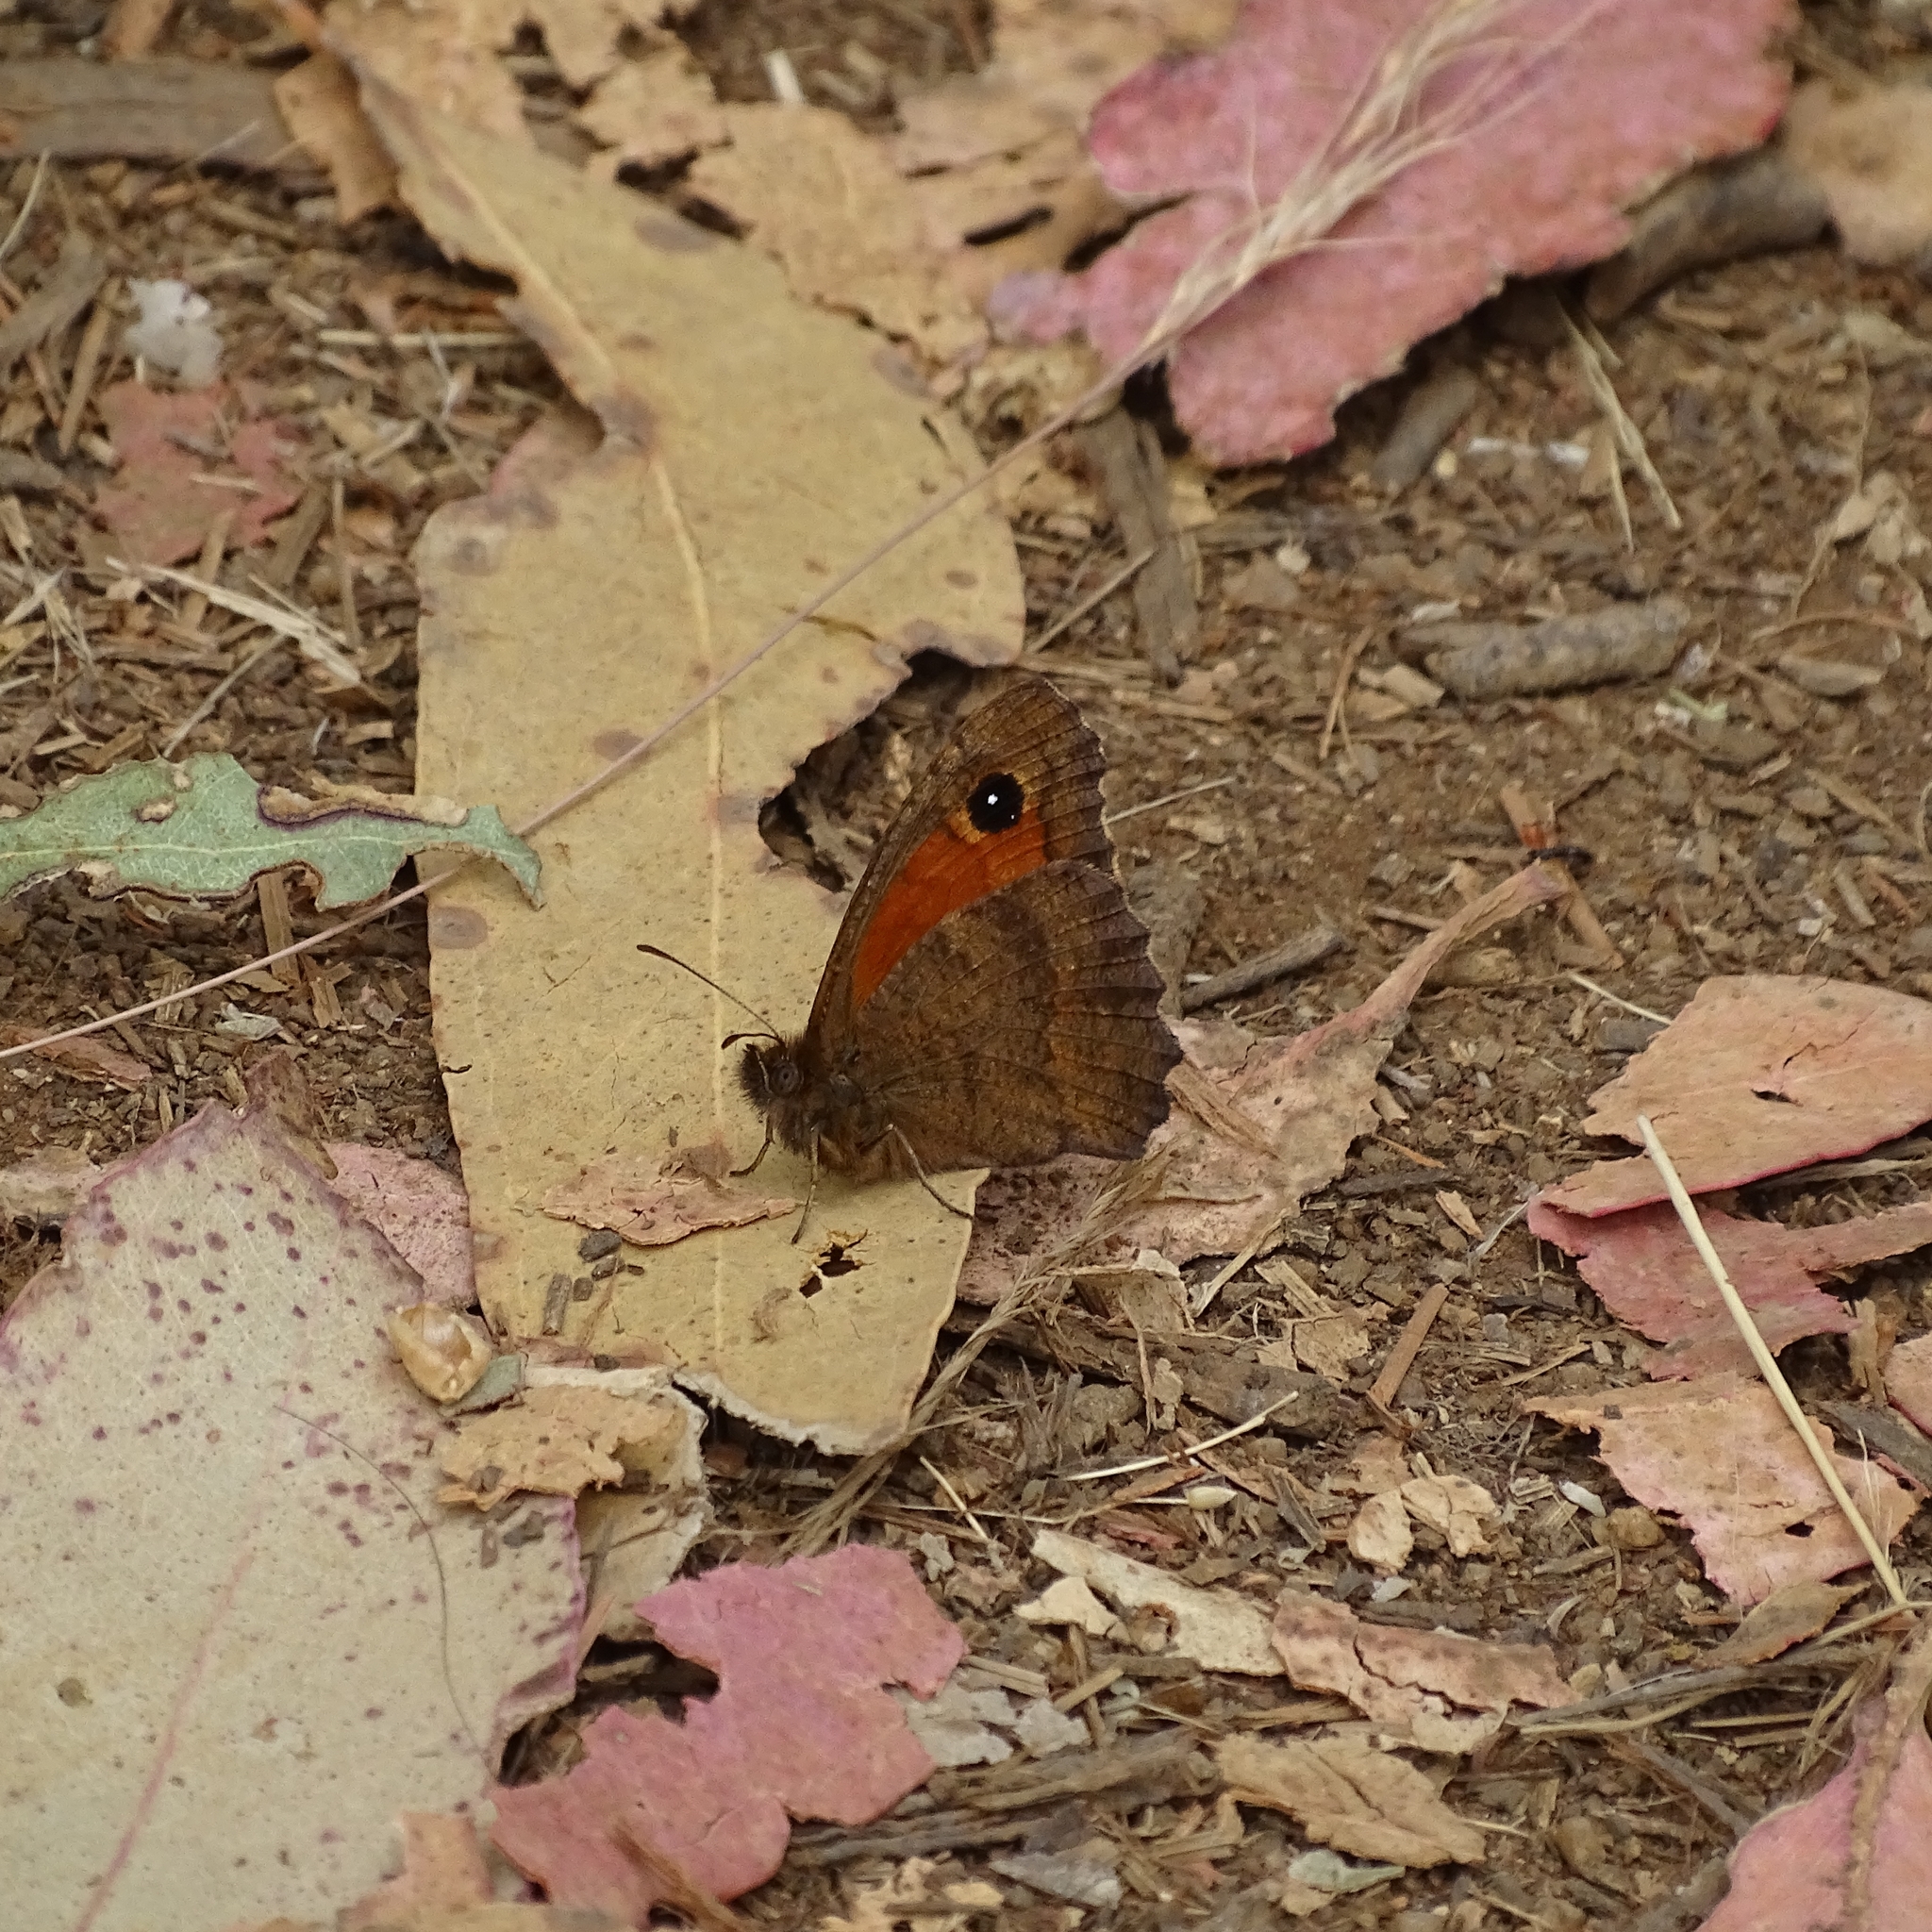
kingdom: Animalia
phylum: Arthropoda
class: Insecta
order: Lepidoptera
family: Nymphalidae
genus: Auca
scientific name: Auca coctei
